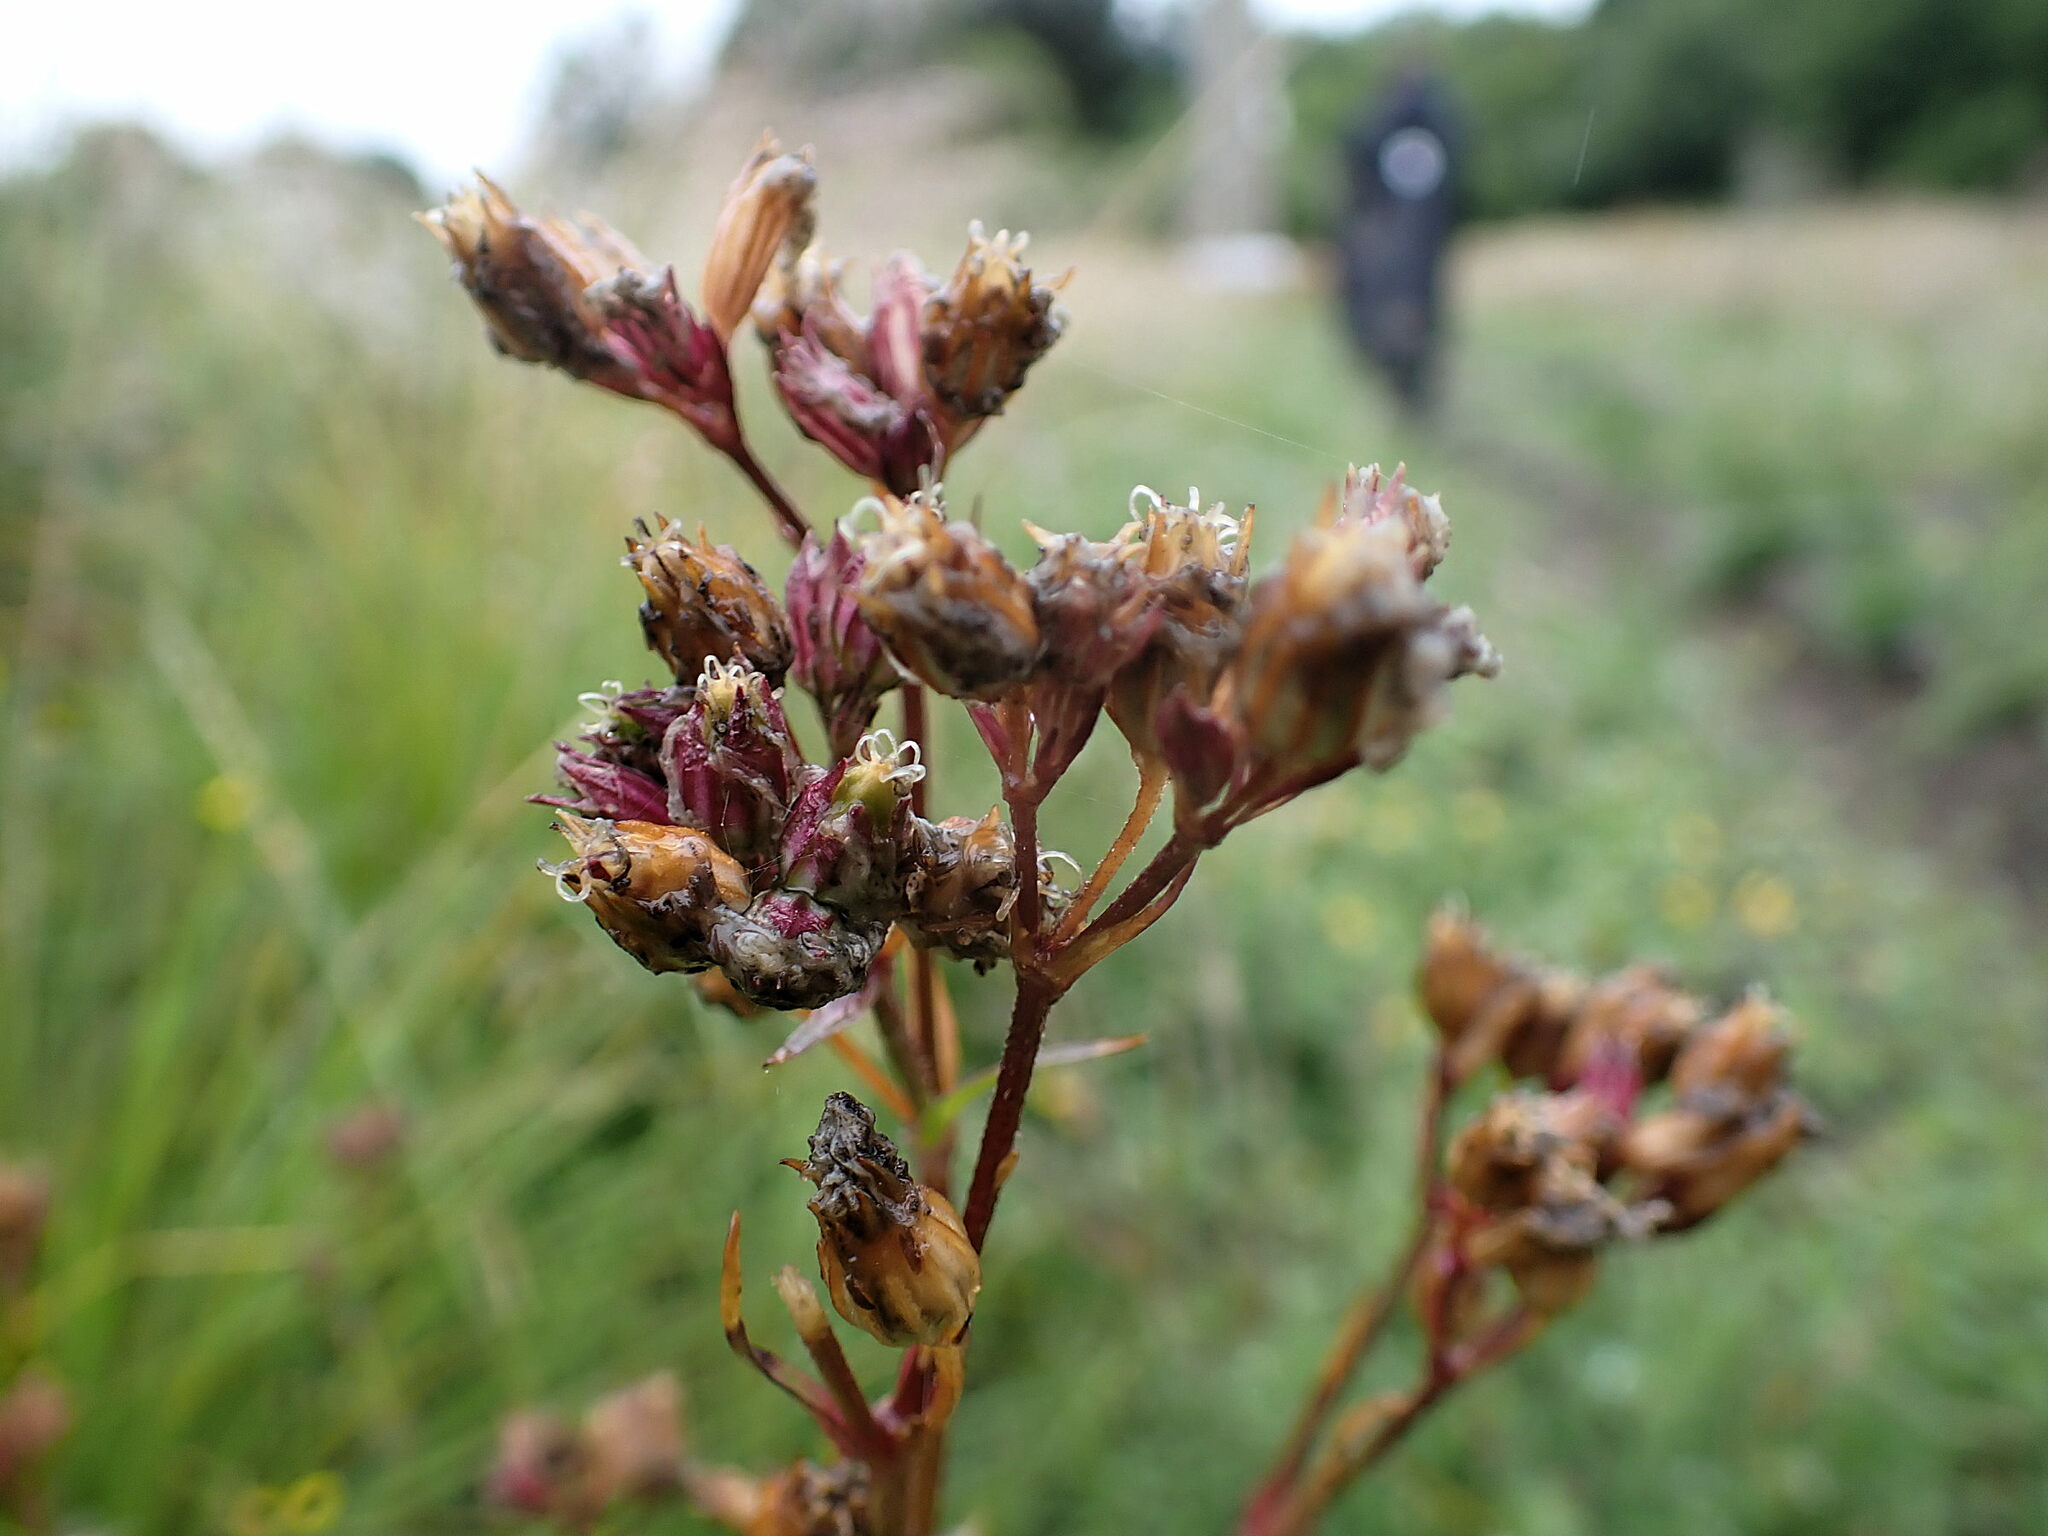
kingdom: Plantae
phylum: Tracheophyta
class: Magnoliopsida
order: Caryophyllales
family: Caryophyllaceae
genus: Silene
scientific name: Silene flos-cuculi
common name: Ragged-robin
